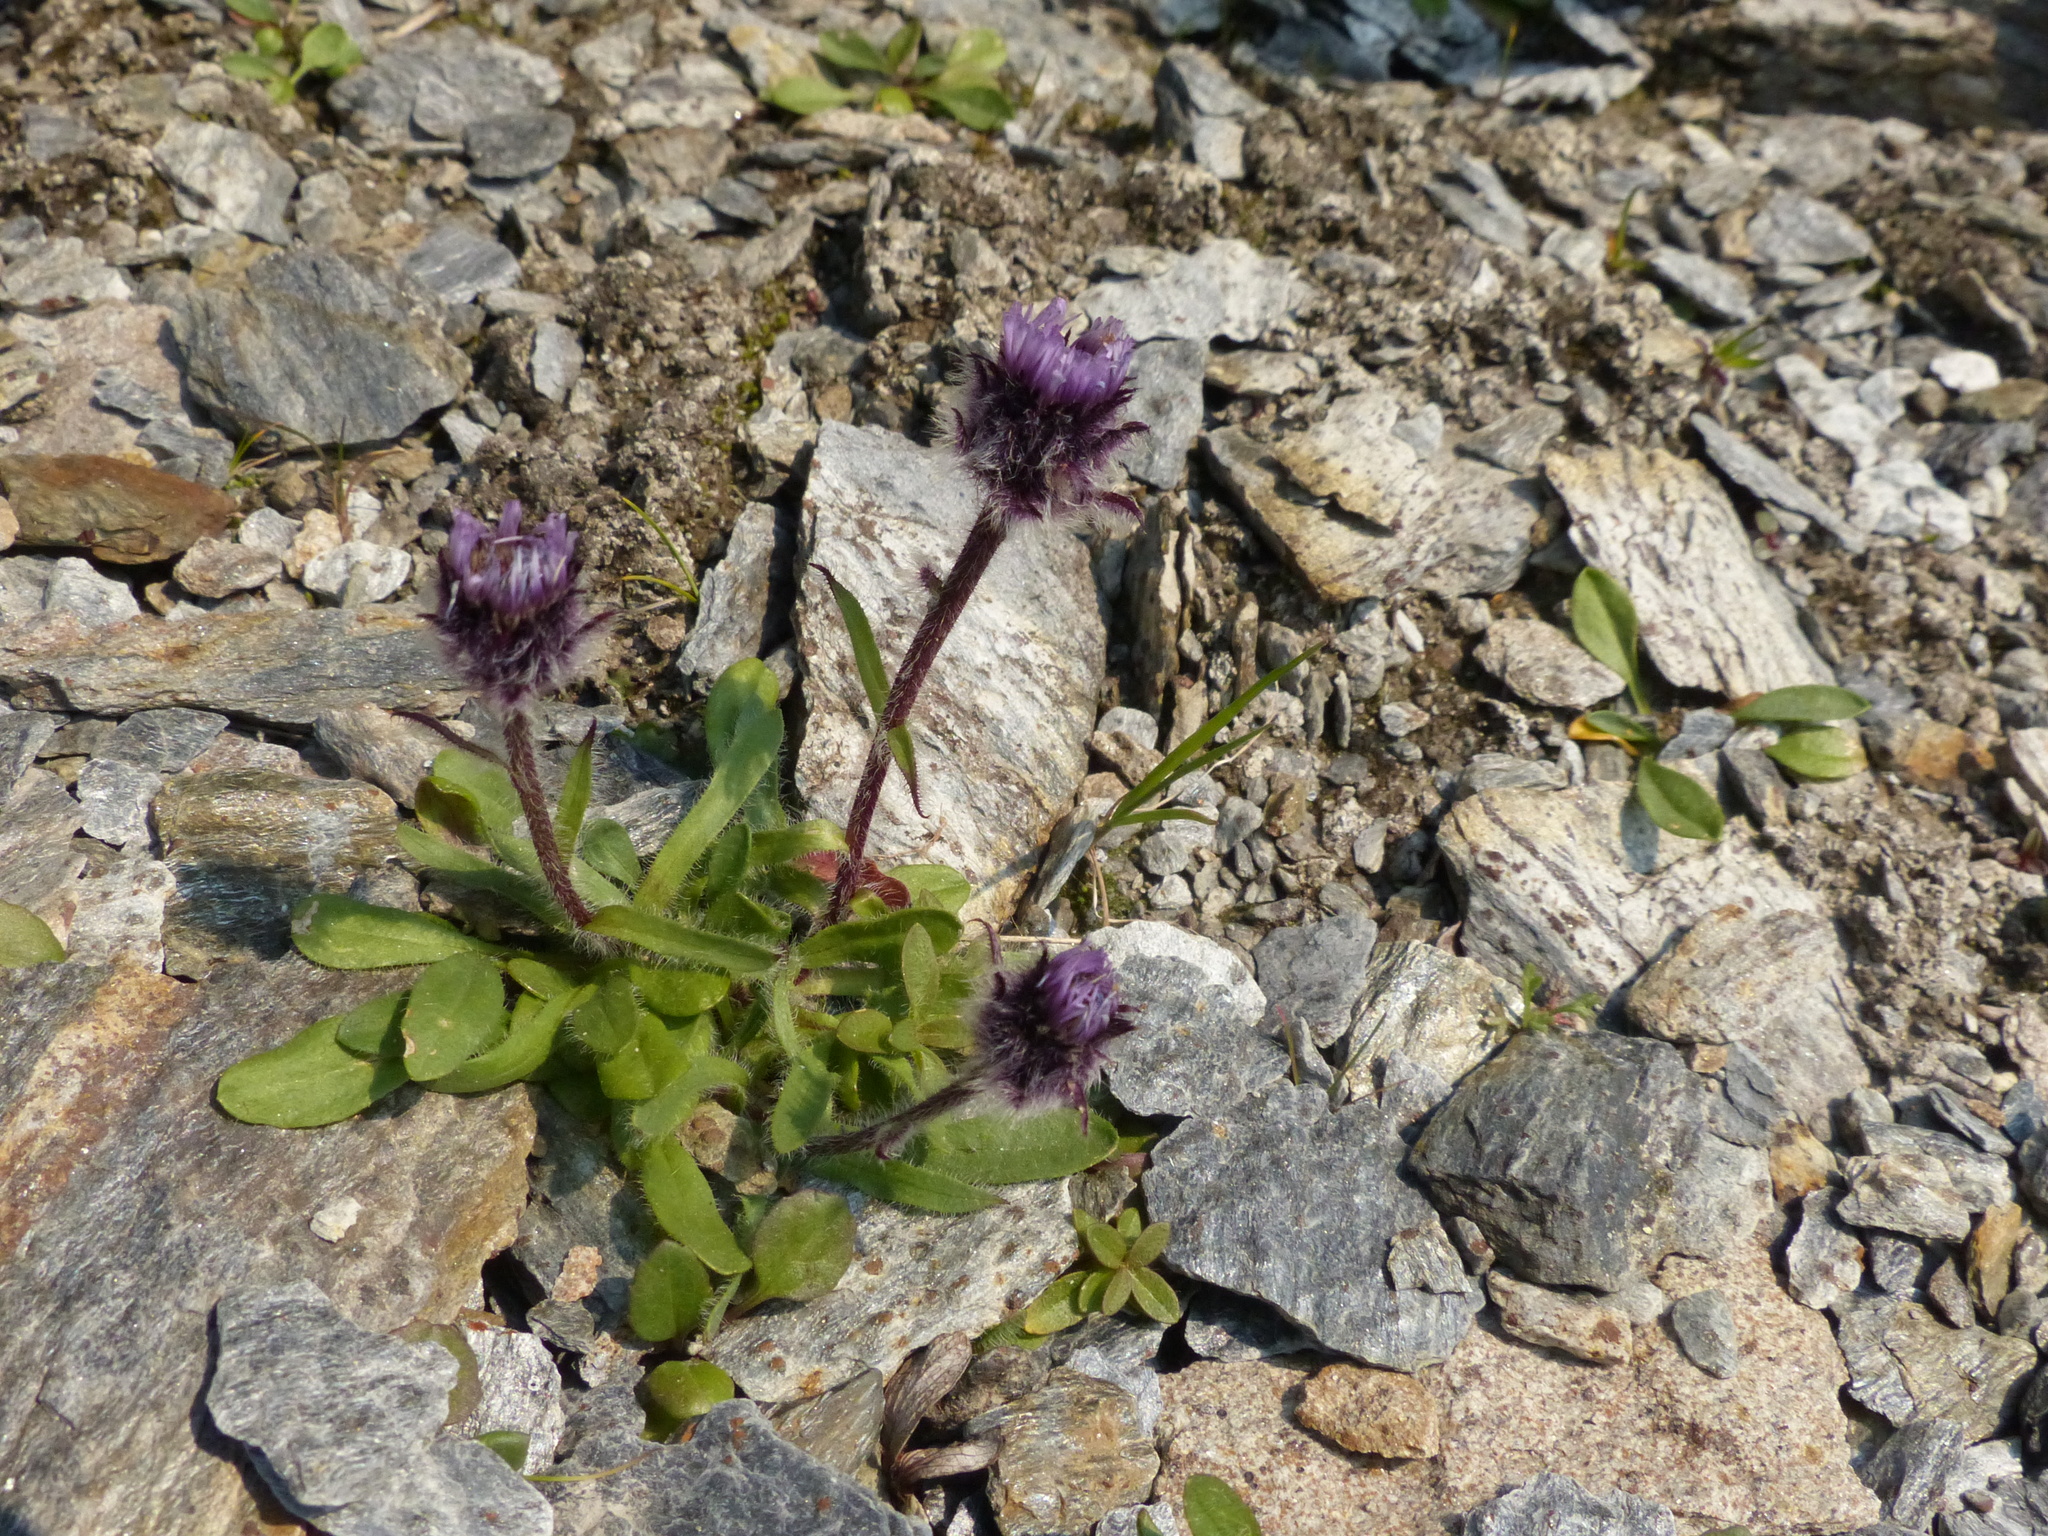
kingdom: Plantae
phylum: Tracheophyta
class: Magnoliopsida
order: Asterales
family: Asteraceae
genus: Erigeron
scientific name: Erigeron humilis
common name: Arctic-alpine fleabane
